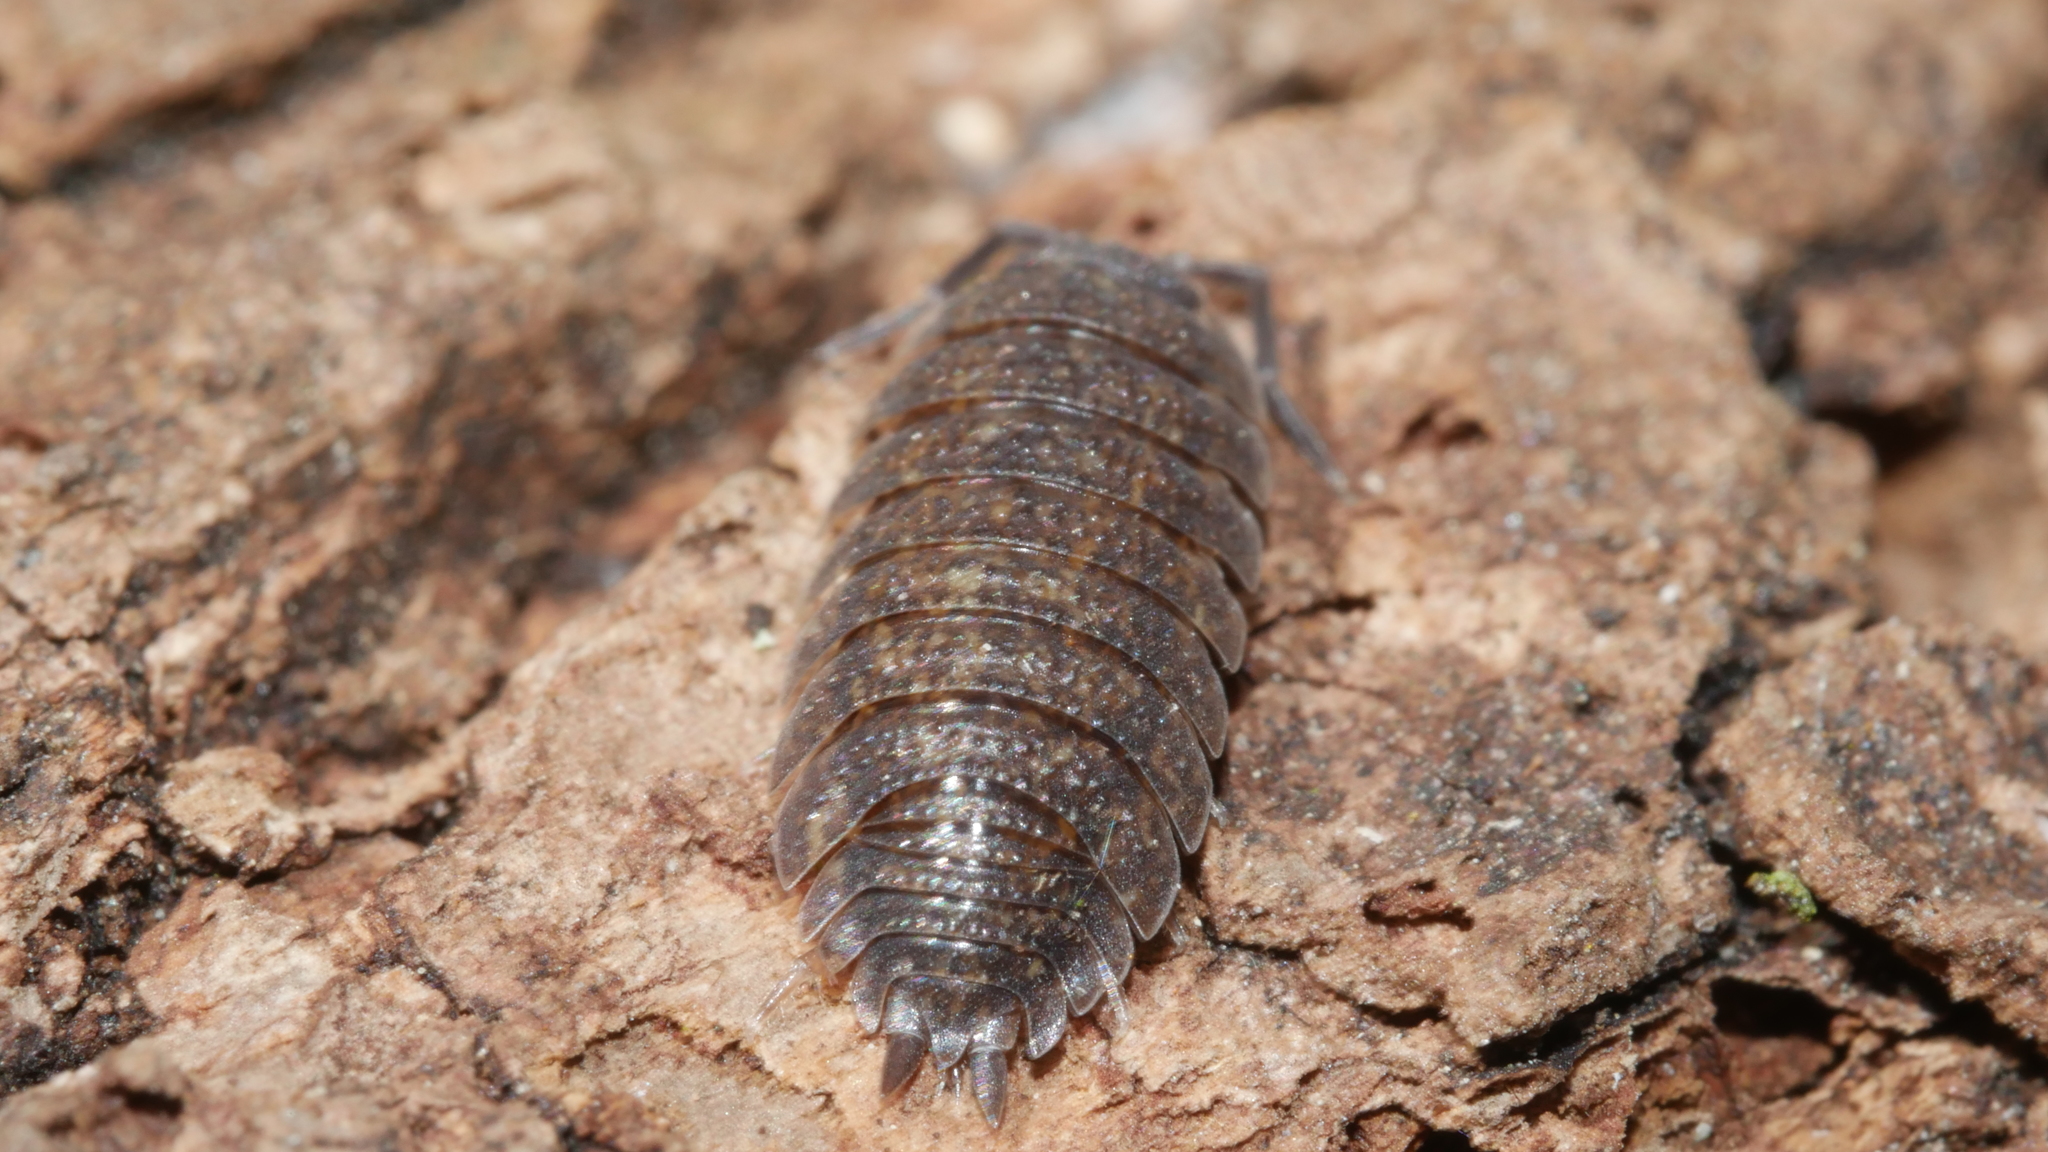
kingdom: Animalia
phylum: Arthropoda
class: Malacostraca
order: Isopoda
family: Porcellionidae
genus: Porcellio
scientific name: Porcellio scaber
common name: Common rough woodlouse
